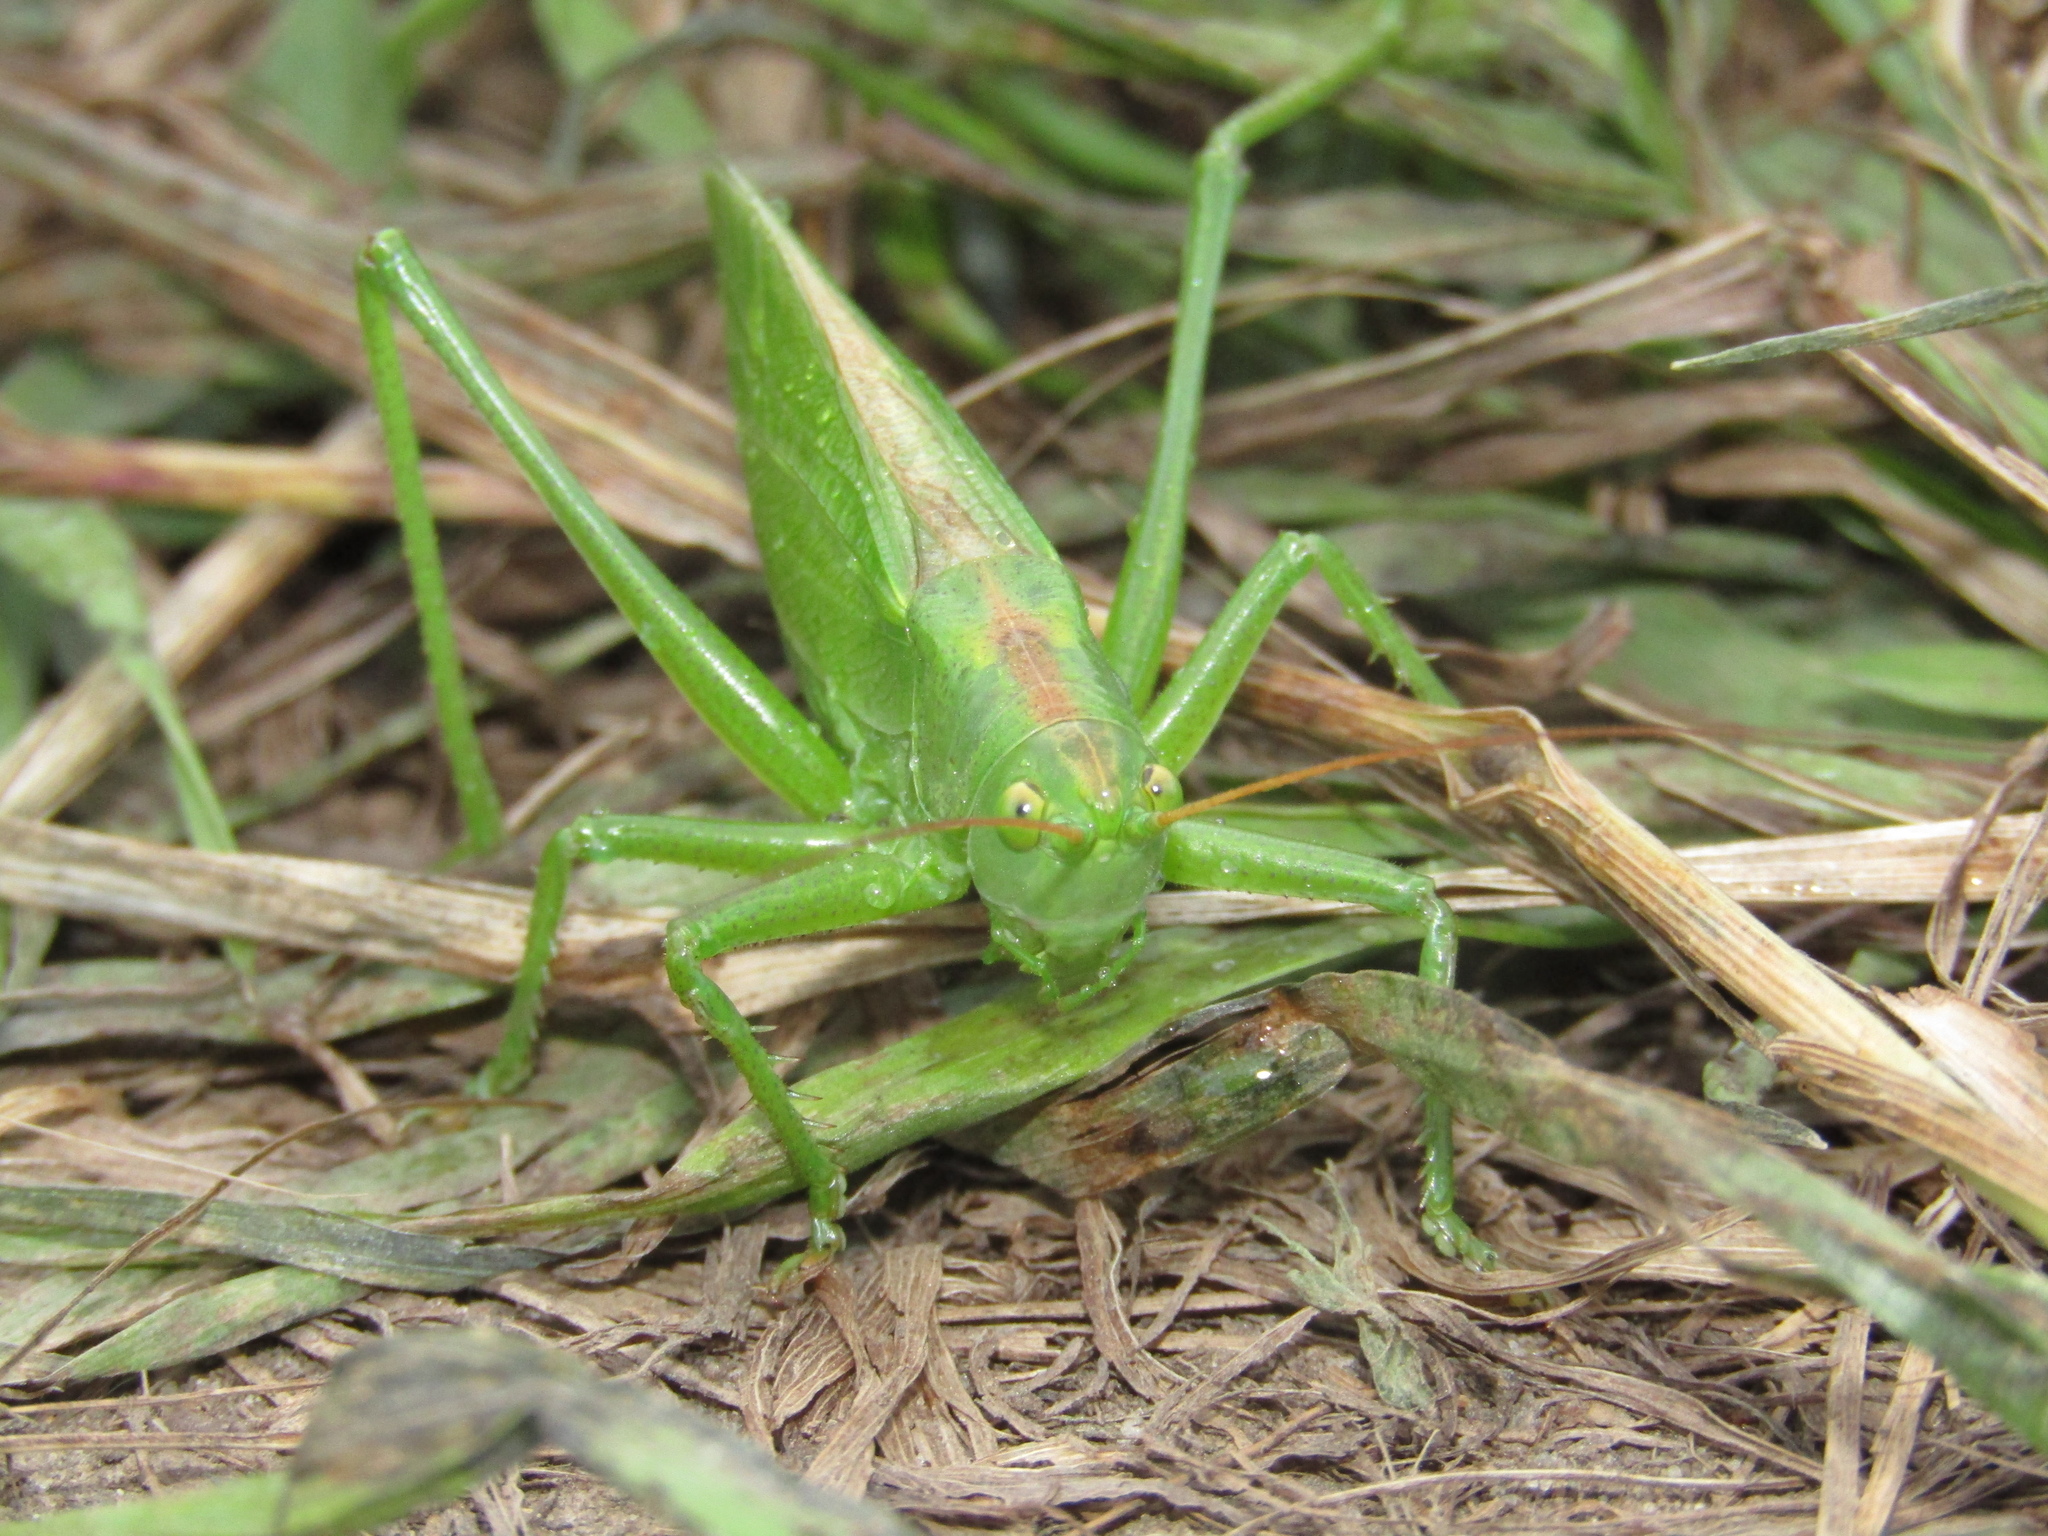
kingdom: Animalia
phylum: Arthropoda
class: Insecta
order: Orthoptera
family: Tettigoniidae
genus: Tettigonia
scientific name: Tettigonia cantans
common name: Upland green bush-cricket
